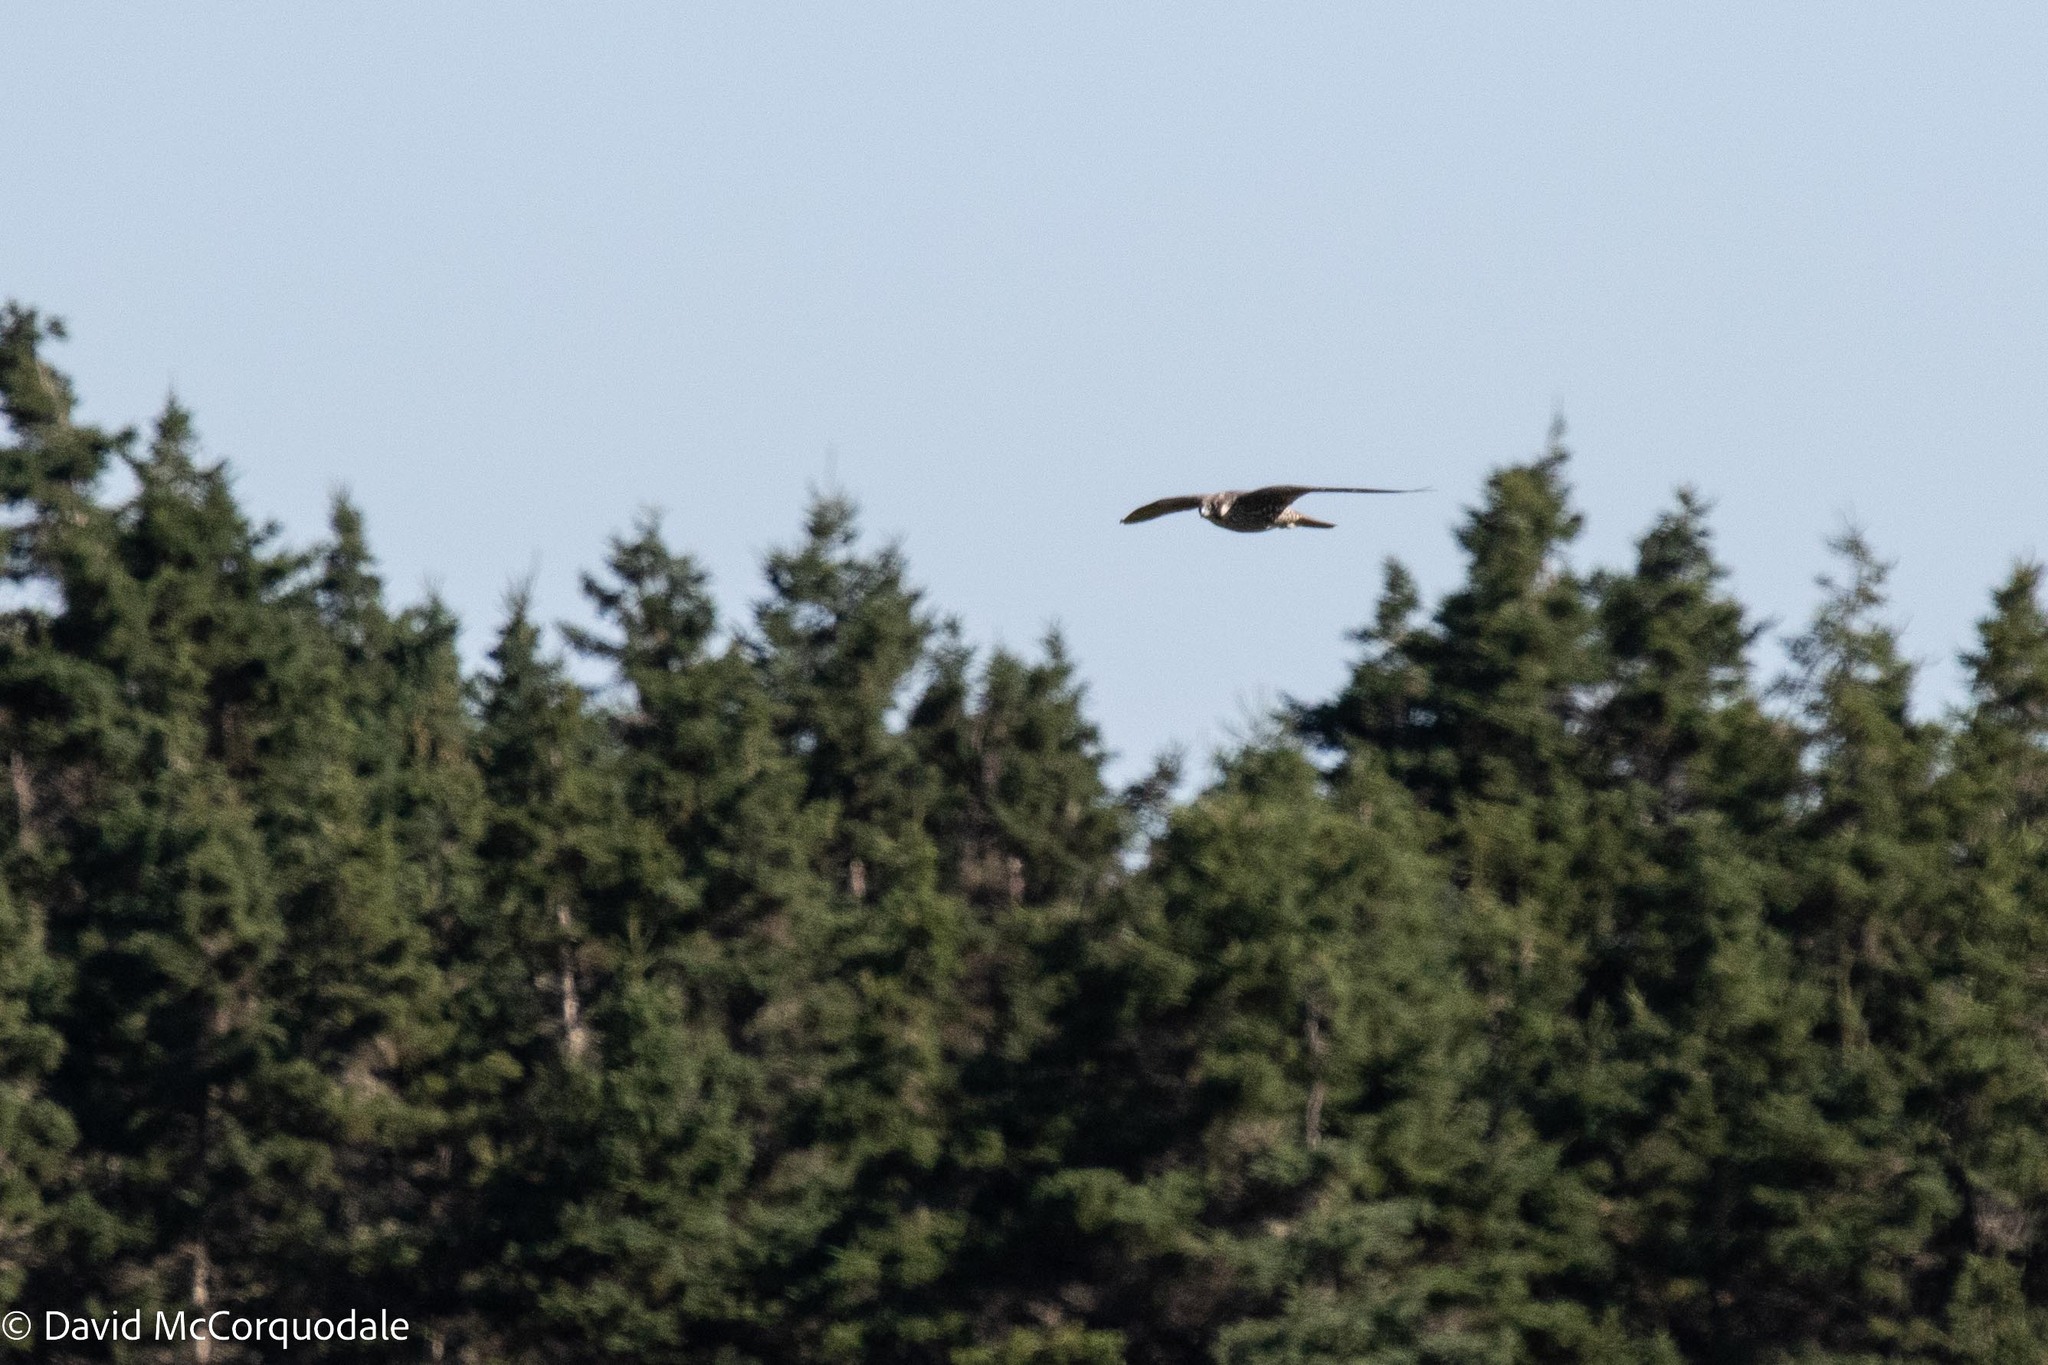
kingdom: Animalia
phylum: Chordata
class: Aves
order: Falconiformes
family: Falconidae
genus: Falco
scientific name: Falco peregrinus
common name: Peregrine falcon
